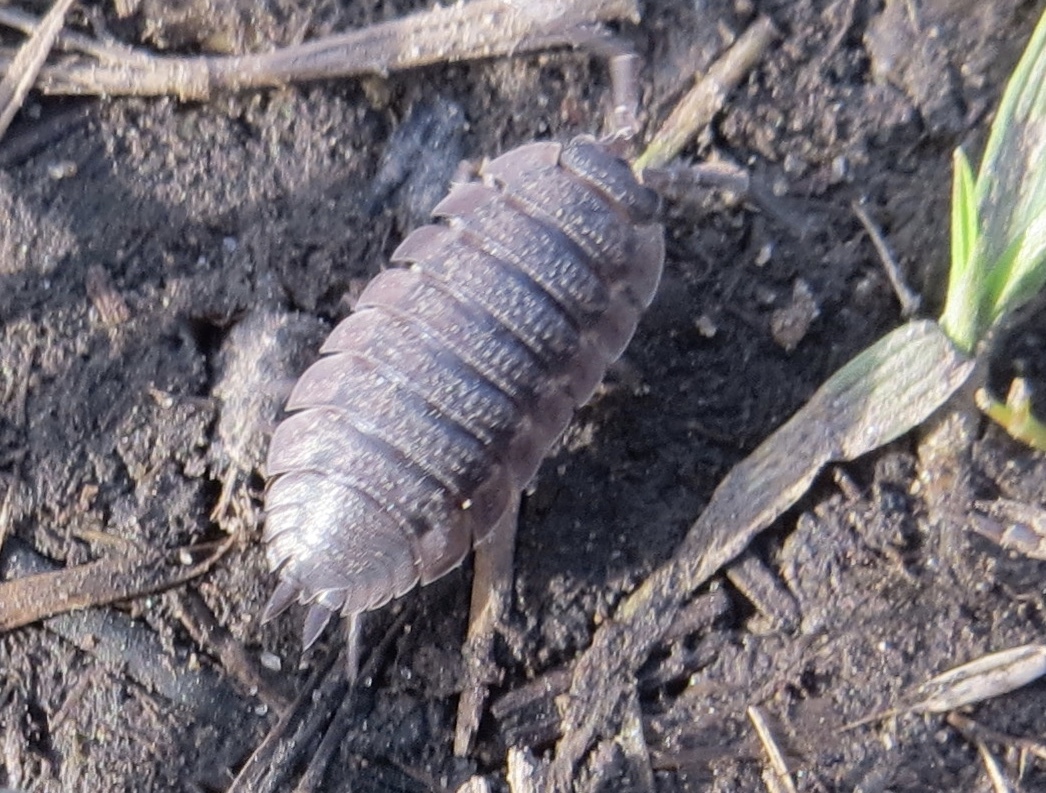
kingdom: Animalia
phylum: Arthropoda
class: Malacostraca
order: Isopoda
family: Porcellionidae
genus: Porcellio
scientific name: Porcellio scaber
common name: Common rough woodlouse
